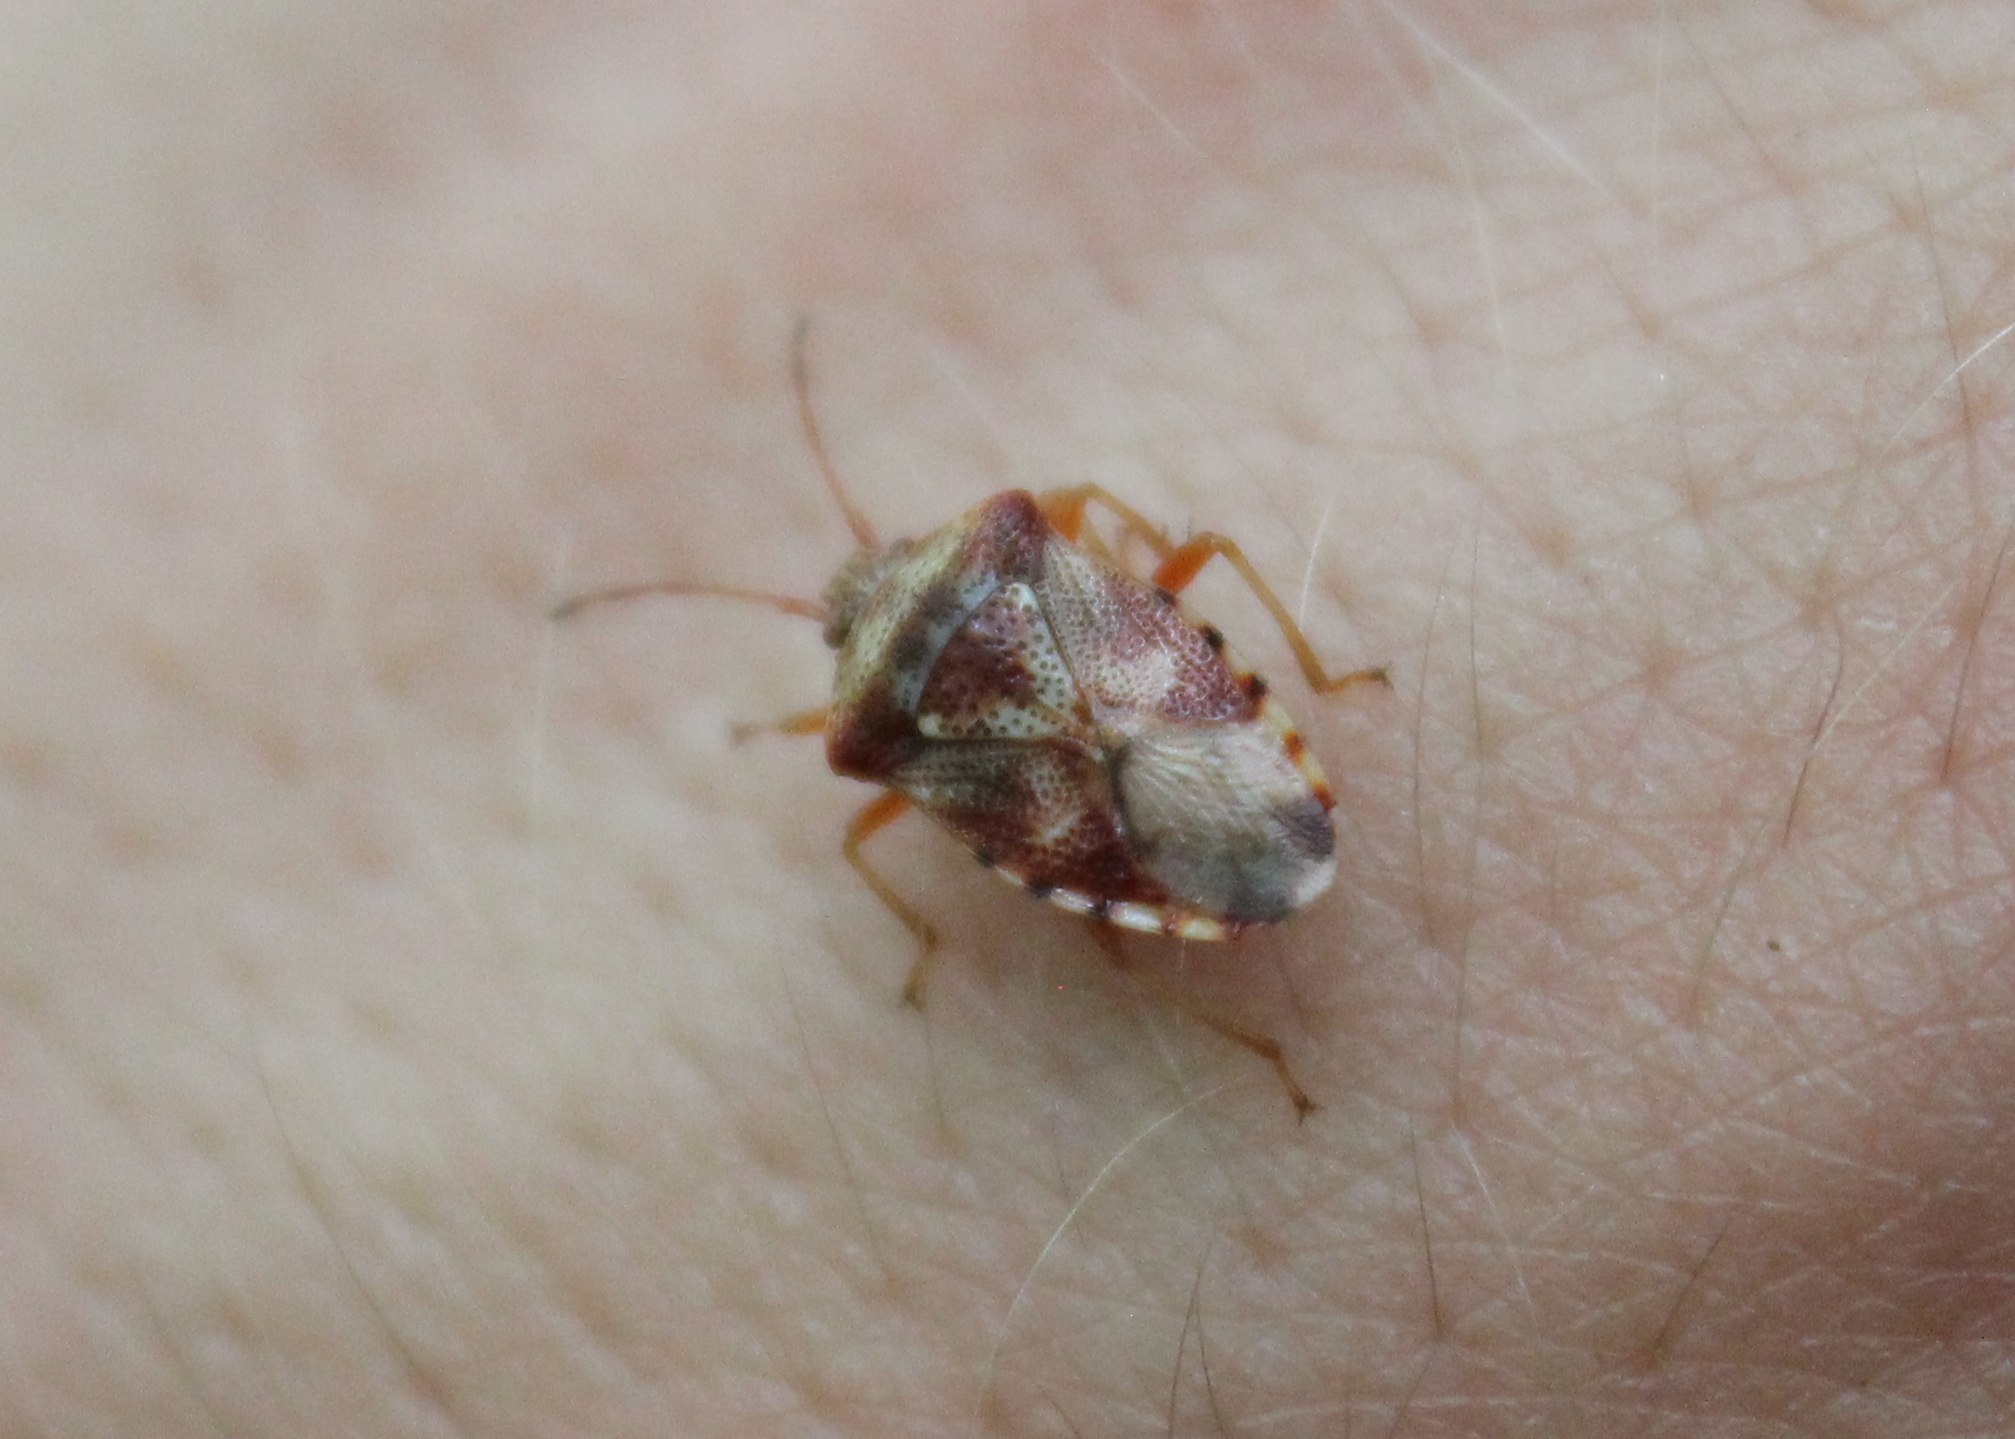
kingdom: Animalia
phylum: Arthropoda
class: Insecta
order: Hemiptera
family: Acanthosomatidae
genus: Elasmucha
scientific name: Elasmucha lateralis
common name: Shield bug
